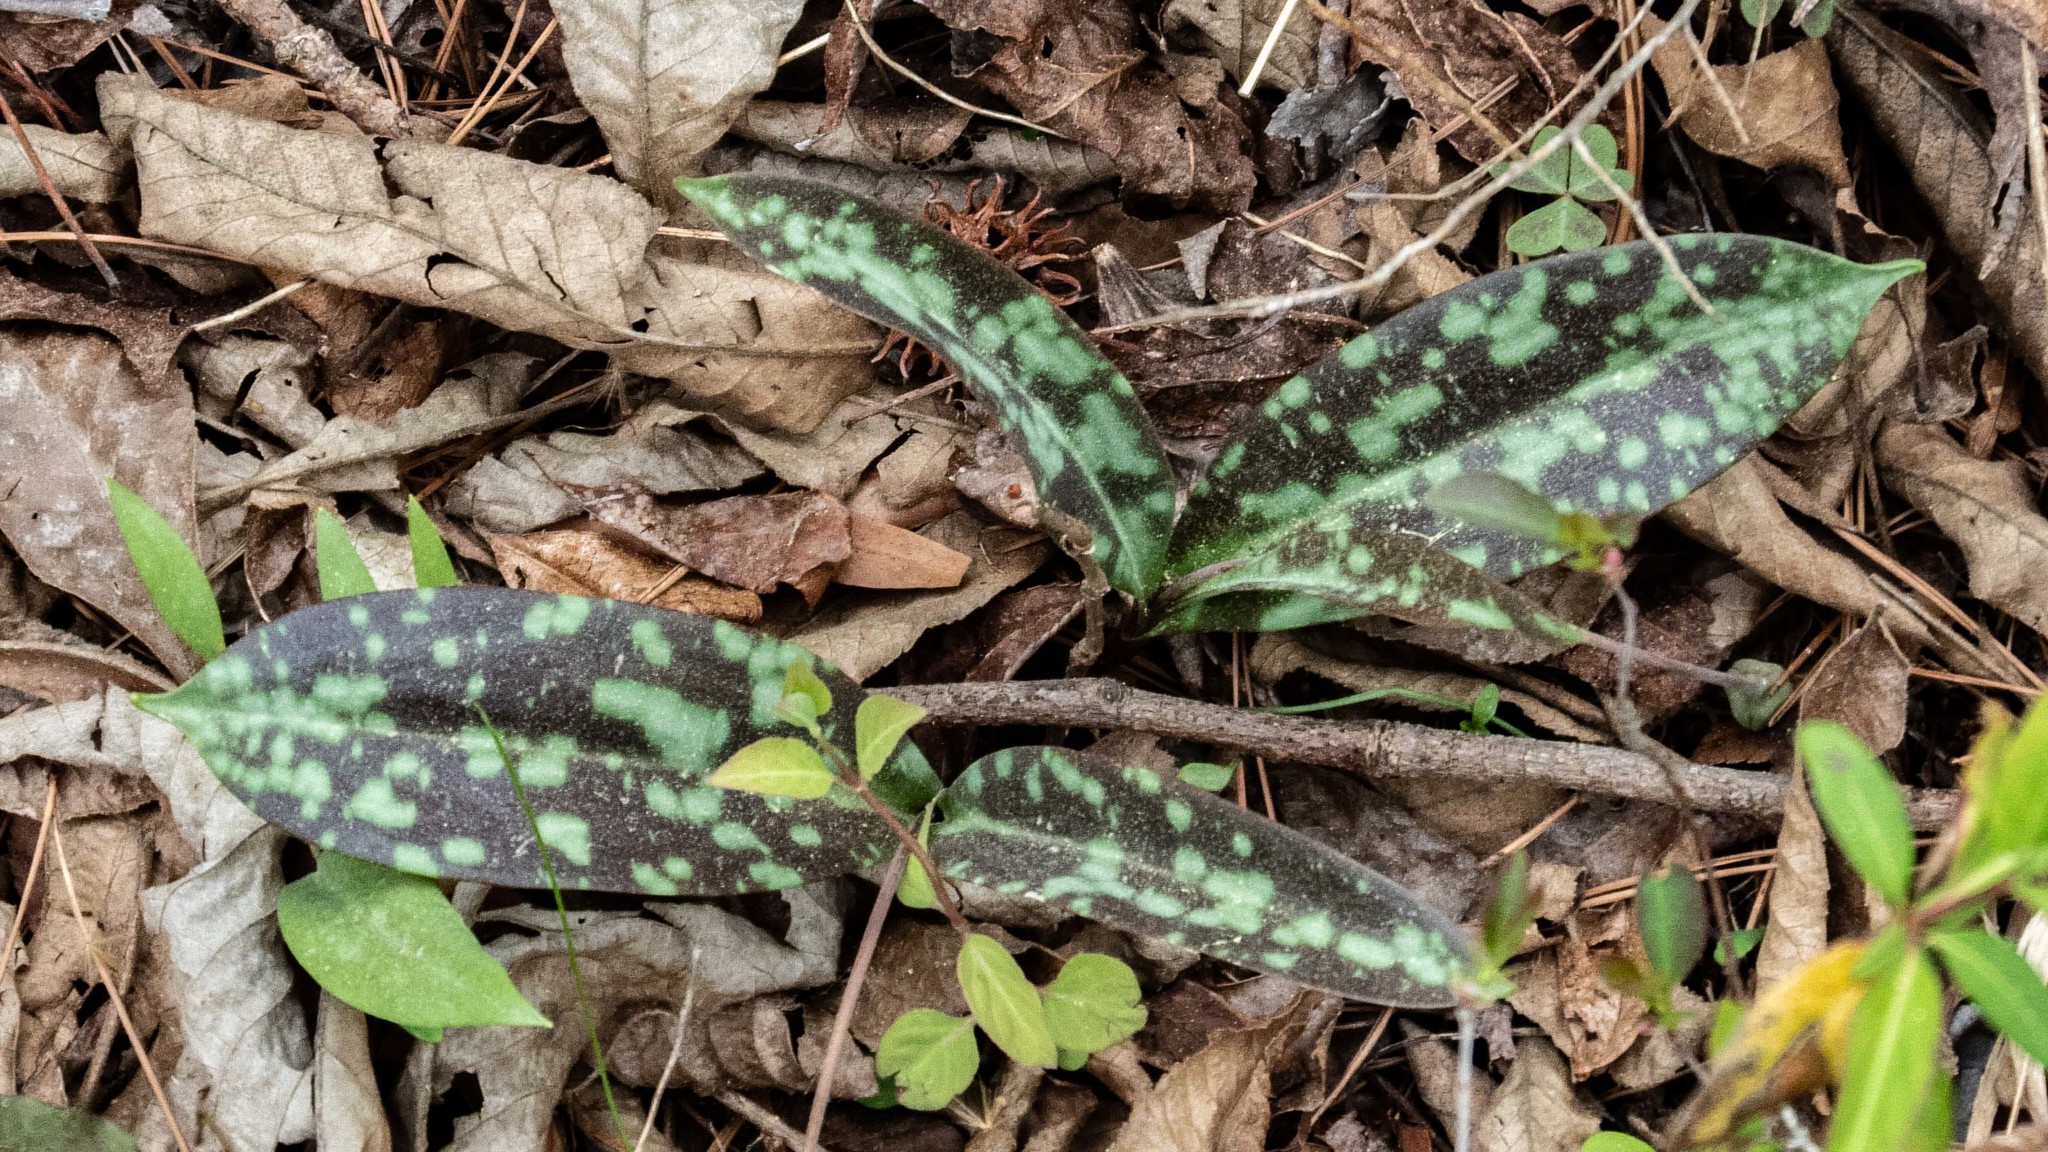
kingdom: Plantae
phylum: Tracheophyta
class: Liliopsida
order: Liliales
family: Liliaceae
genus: Erythronium
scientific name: Erythronium umbilicatum
